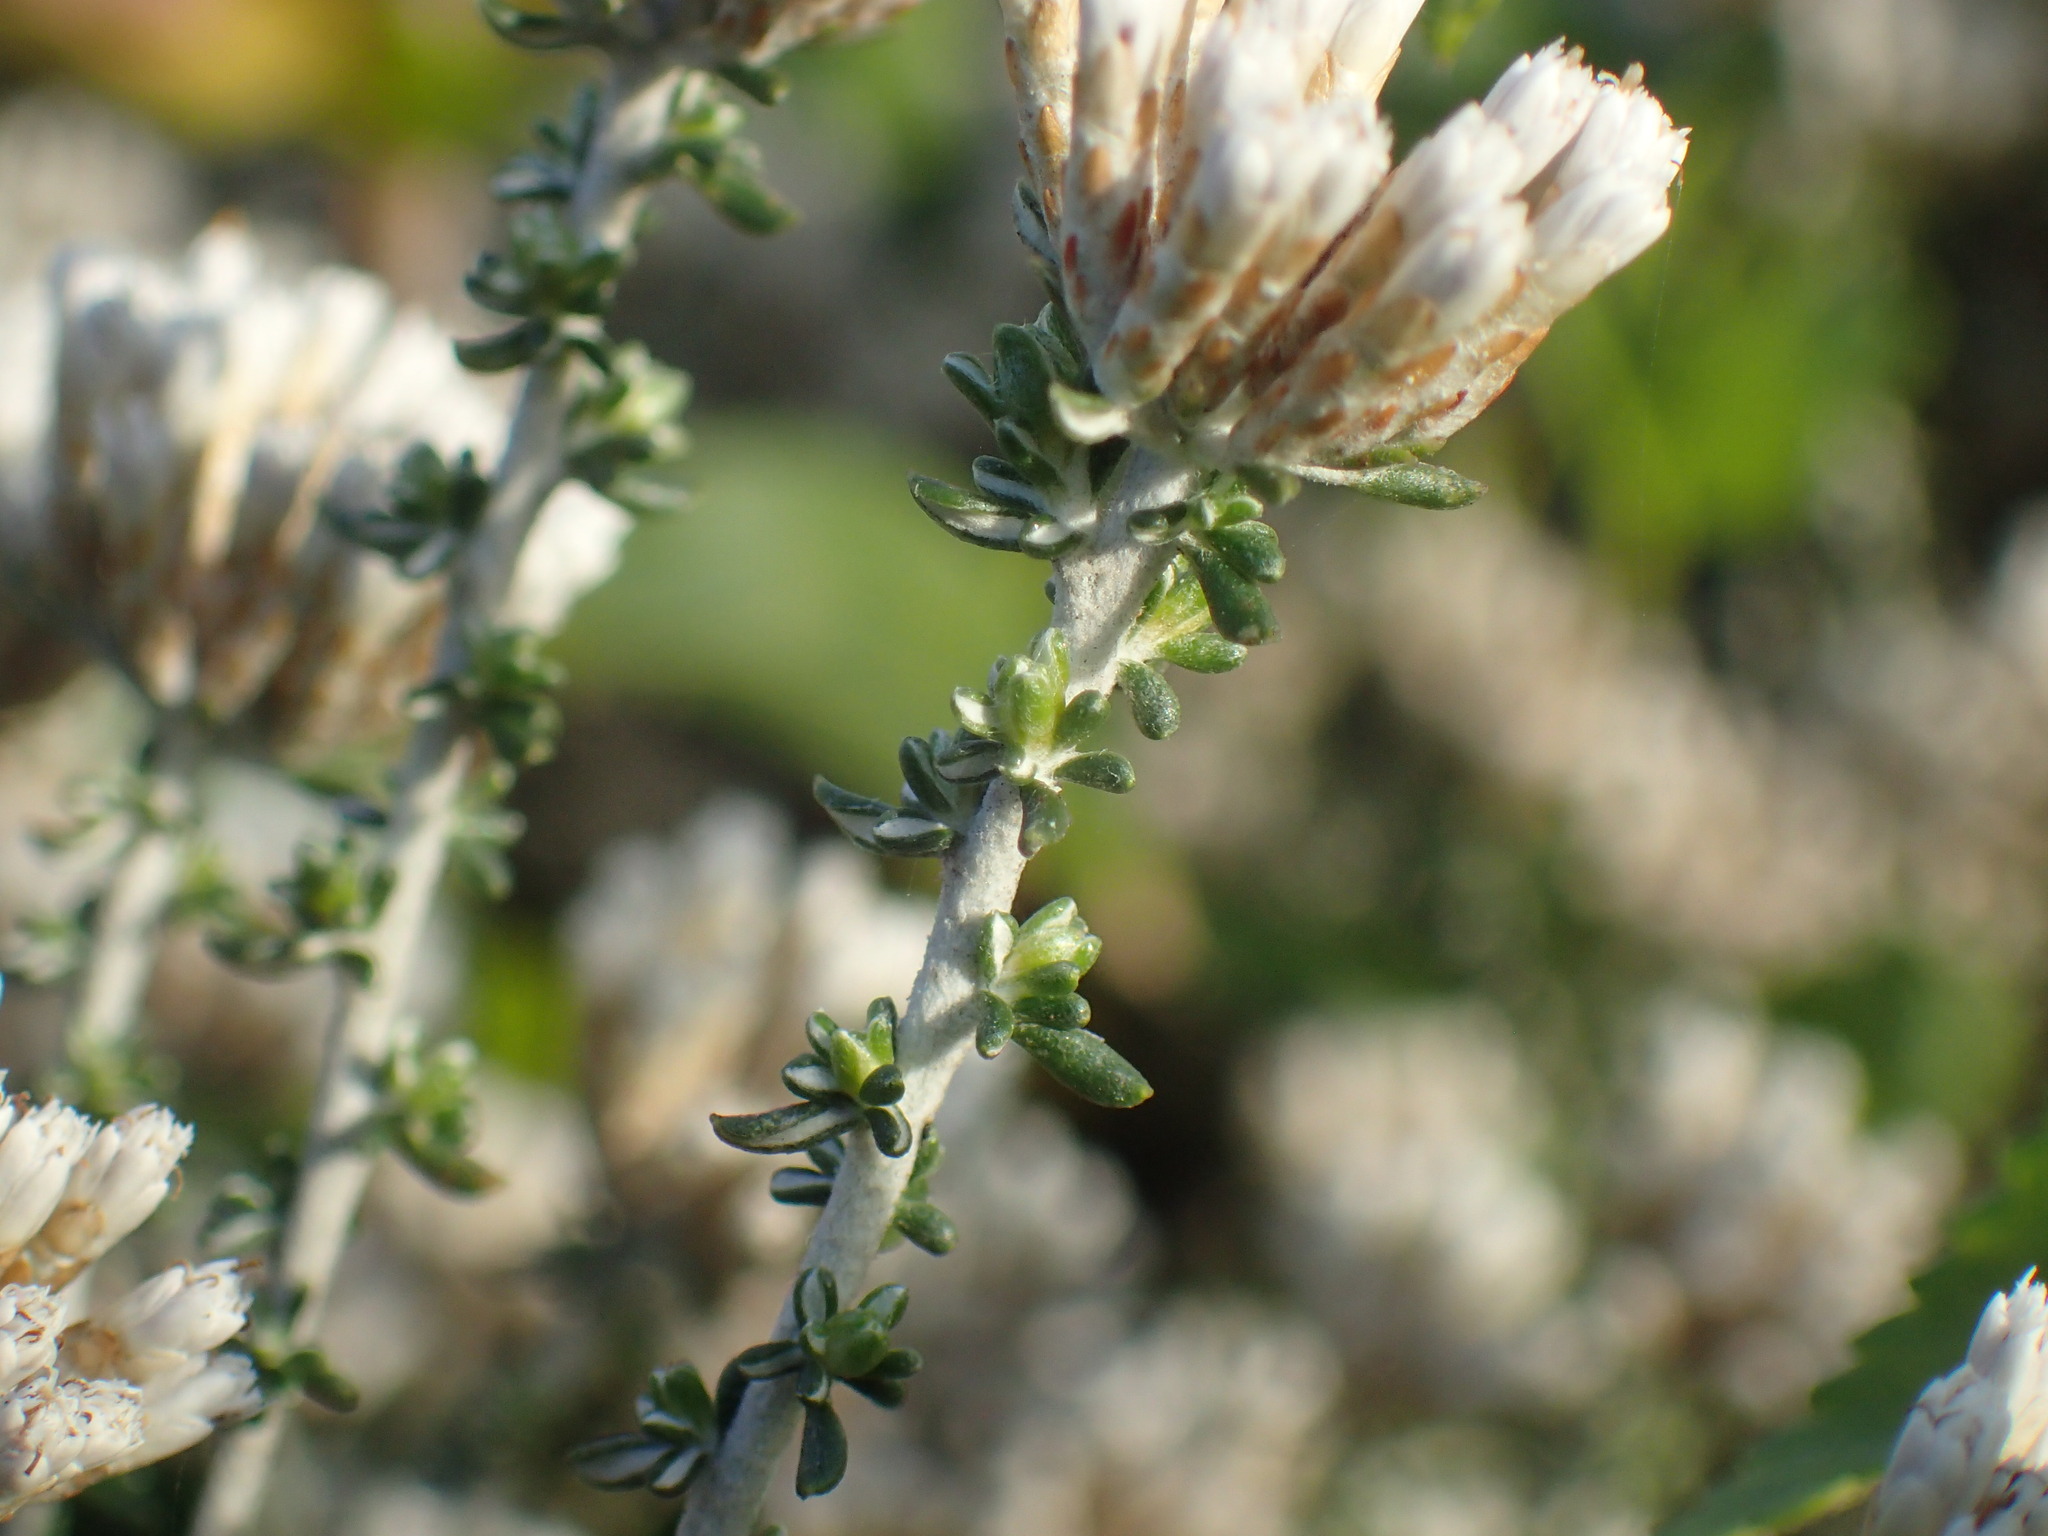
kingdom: Plantae
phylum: Tracheophyta
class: Magnoliopsida
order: Asterales
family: Asteraceae
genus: Metalasia
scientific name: Metalasia muricata
